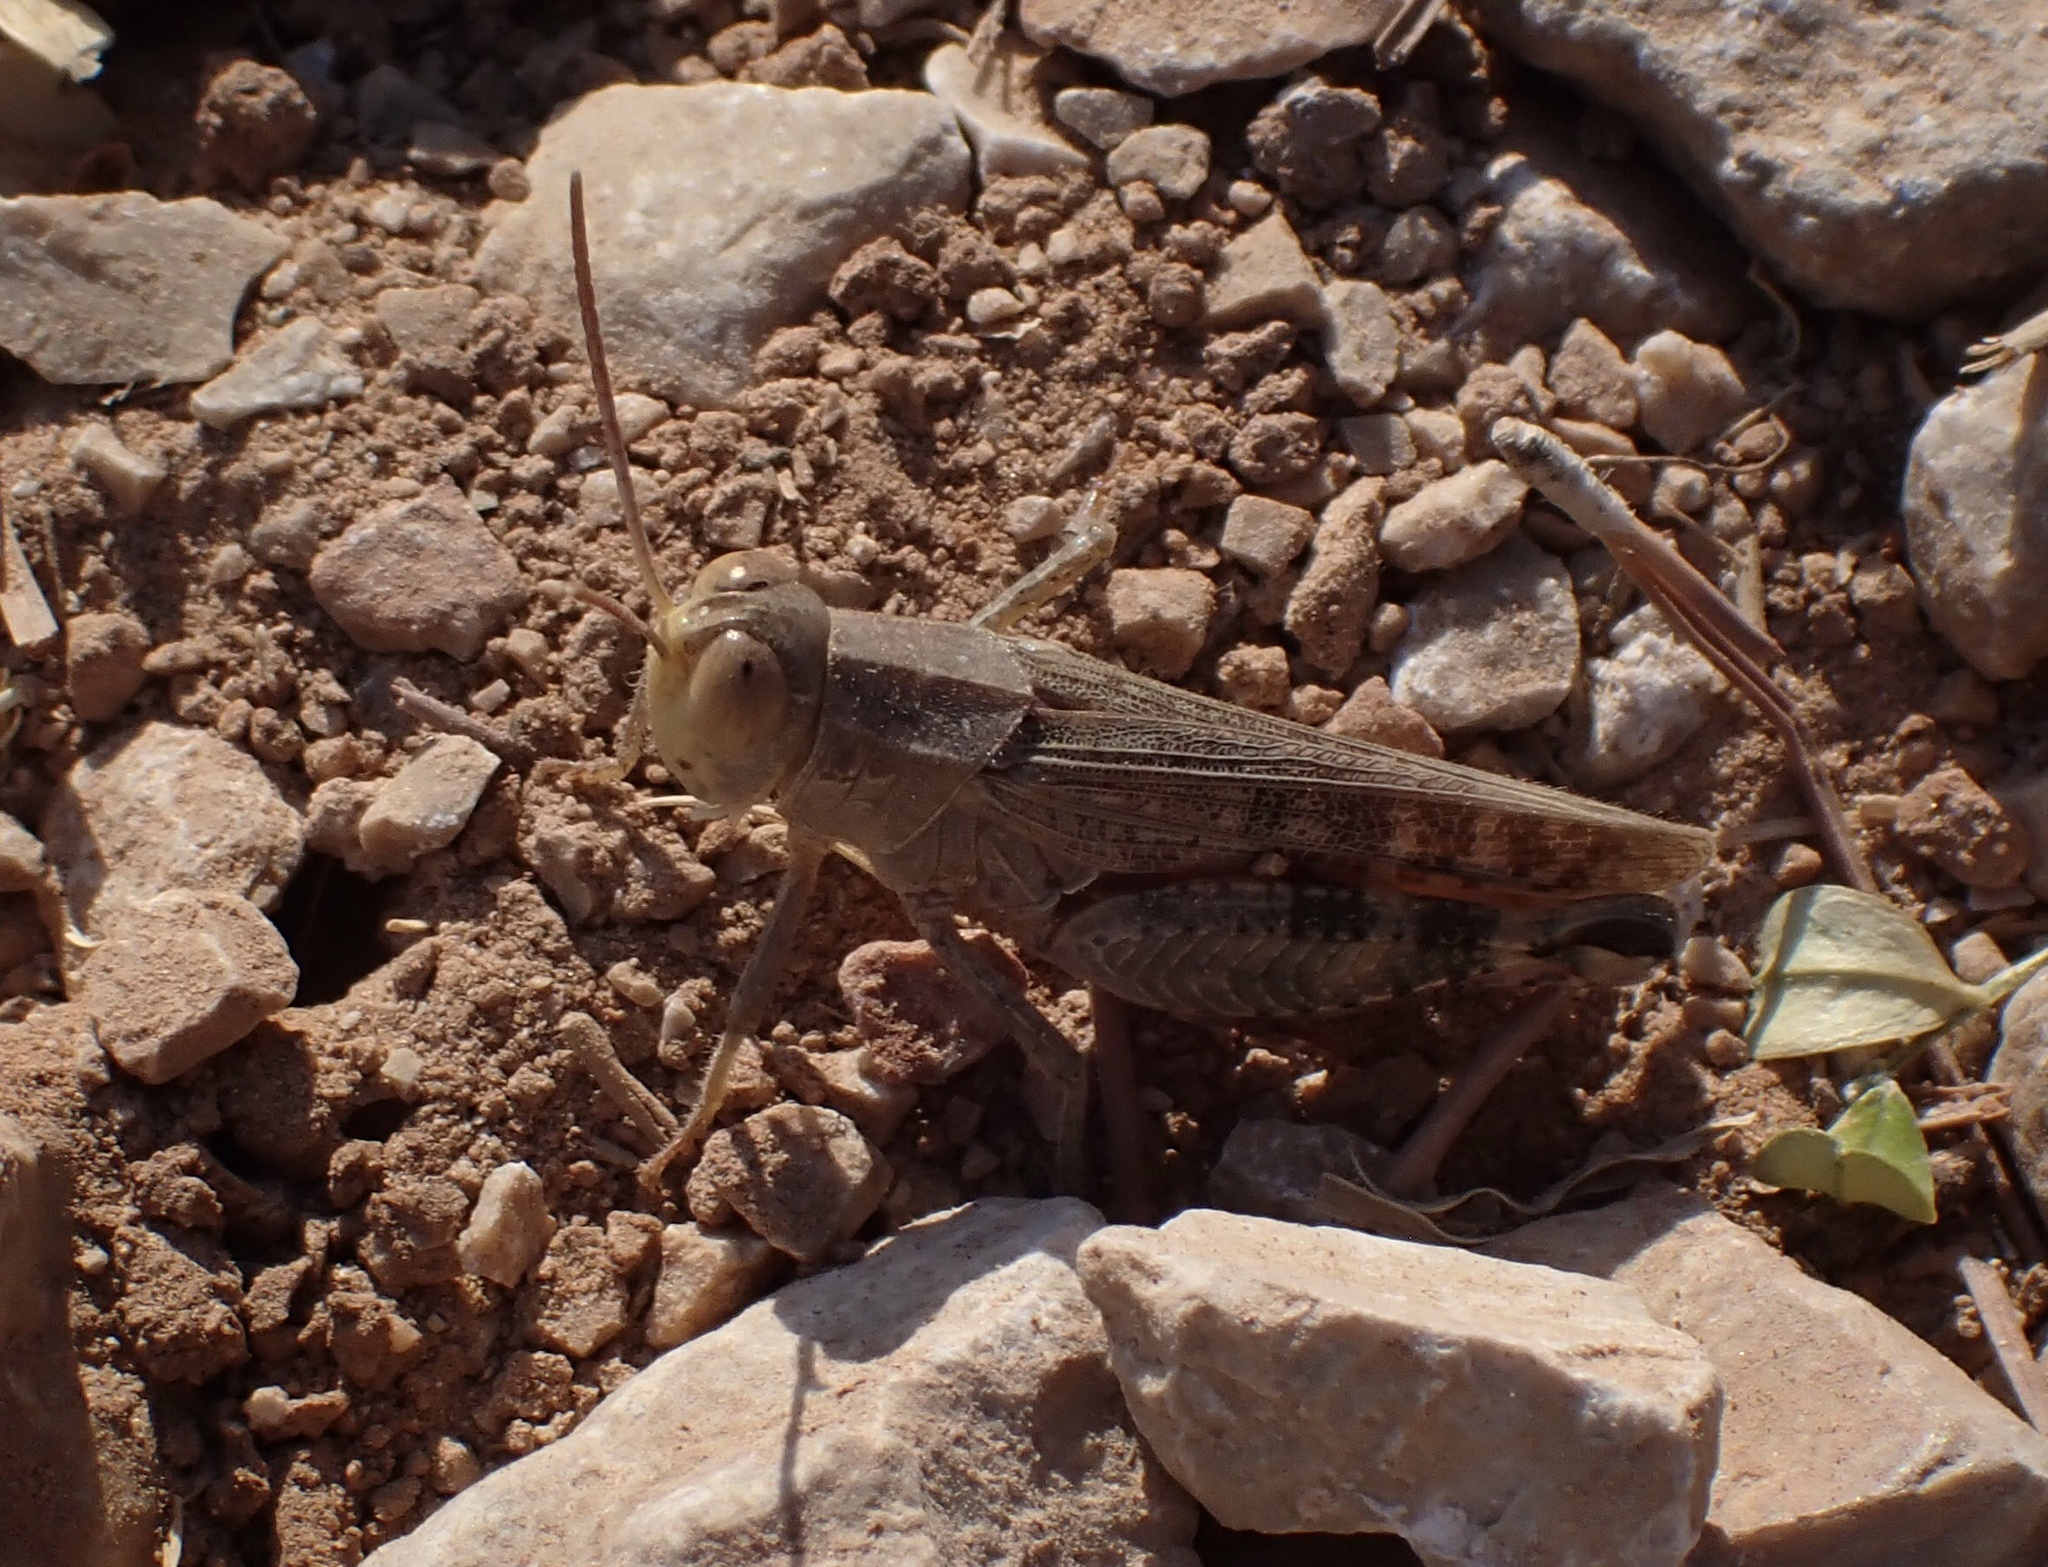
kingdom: Animalia
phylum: Arthropoda
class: Insecta
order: Orthoptera
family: Acrididae
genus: Calliptamus
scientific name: Calliptamus italicus
